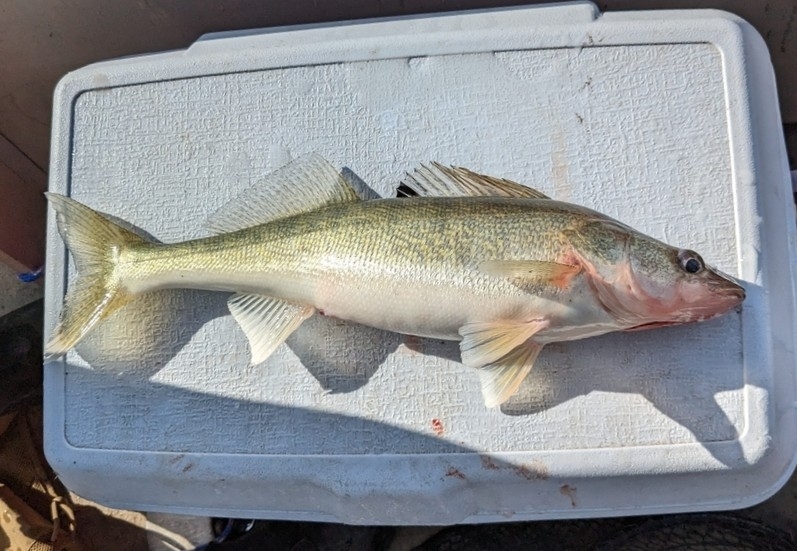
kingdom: Animalia
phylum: Chordata
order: Perciformes
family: Percidae
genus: Sander
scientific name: Sander vitreus
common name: Walleye
